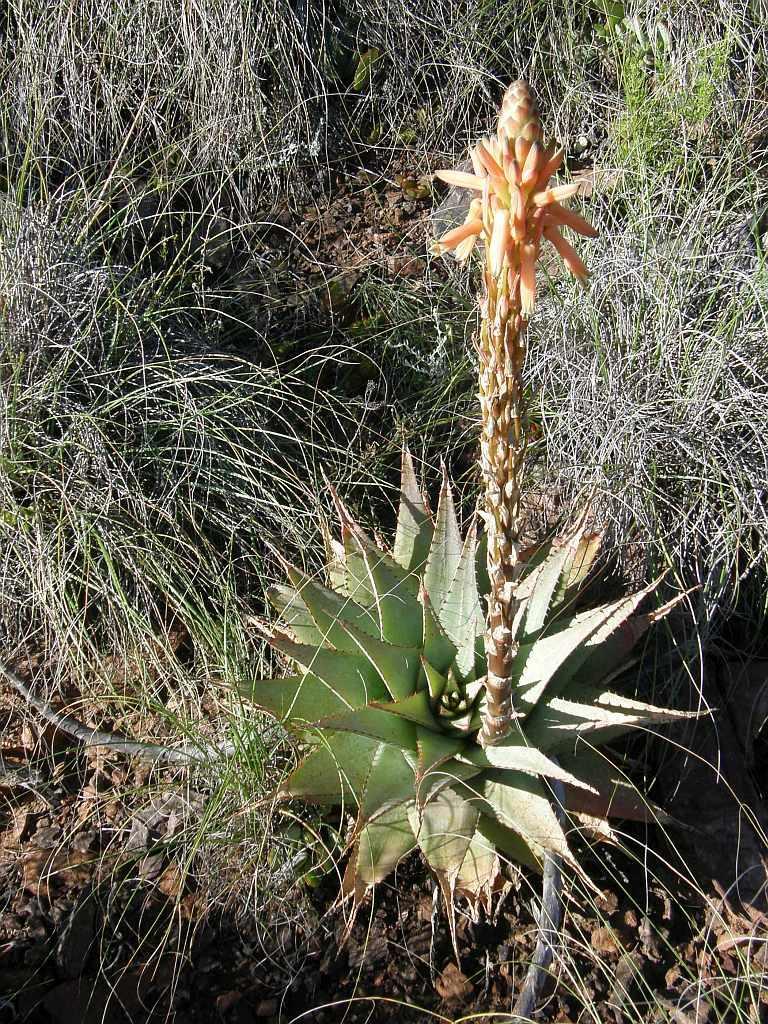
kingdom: Plantae
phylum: Tracheophyta
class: Liliopsida
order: Asparagales
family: Asphodelaceae
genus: Aloe
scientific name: Aloe glauca
